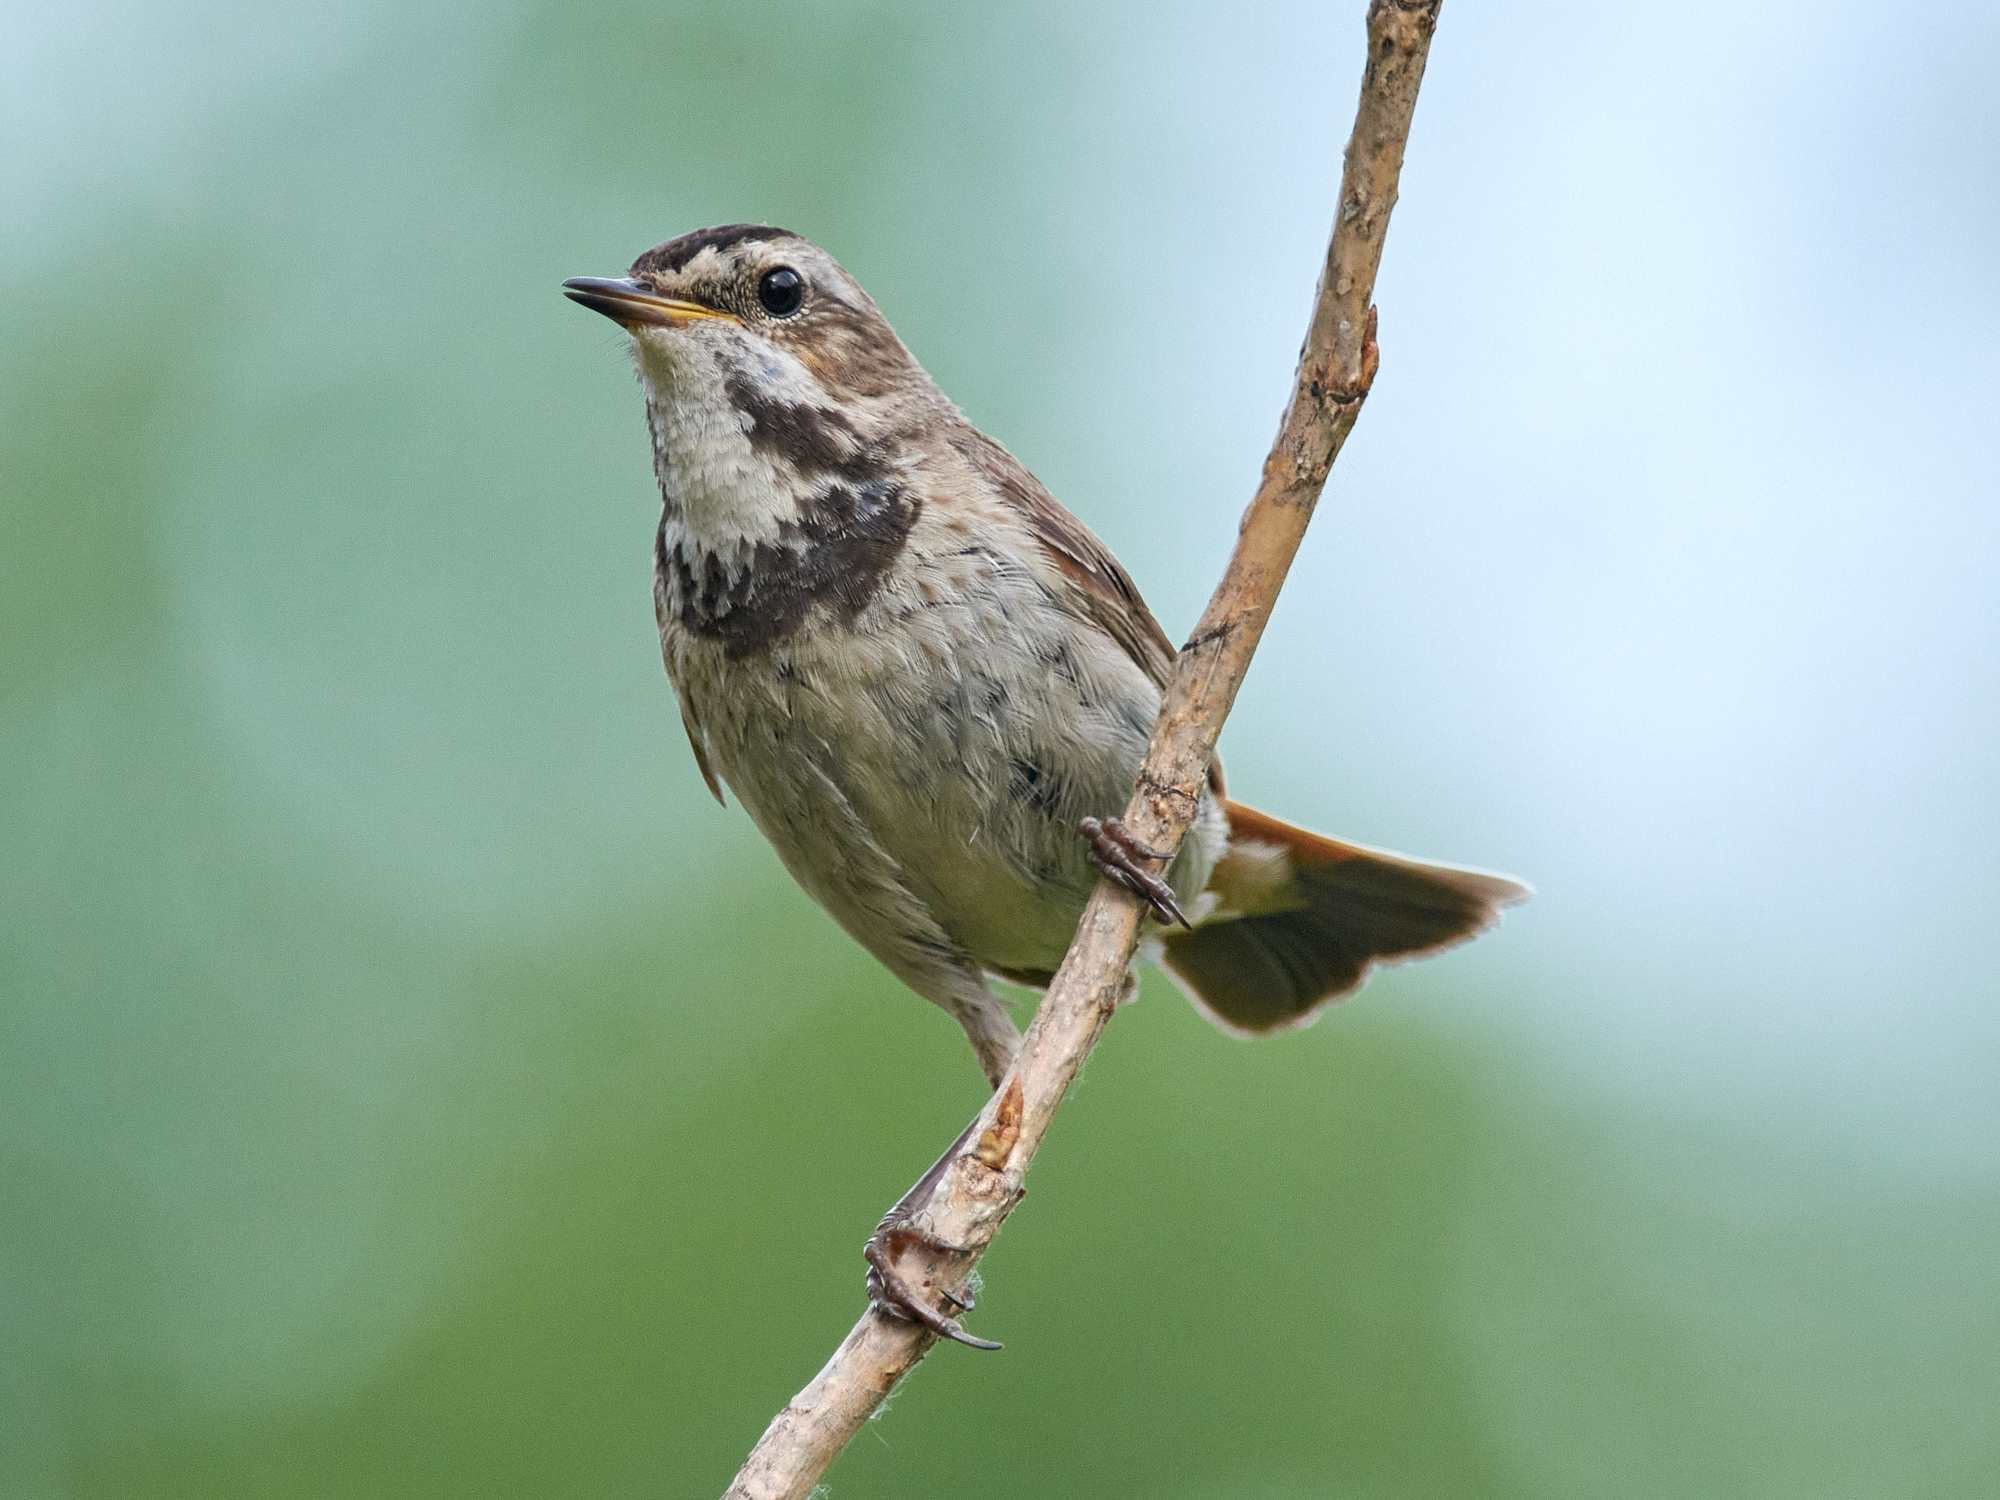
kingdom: Animalia
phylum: Chordata
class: Aves
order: Passeriformes
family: Muscicapidae
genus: Luscinia
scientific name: Luscinia svecica
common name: Bluethroat
